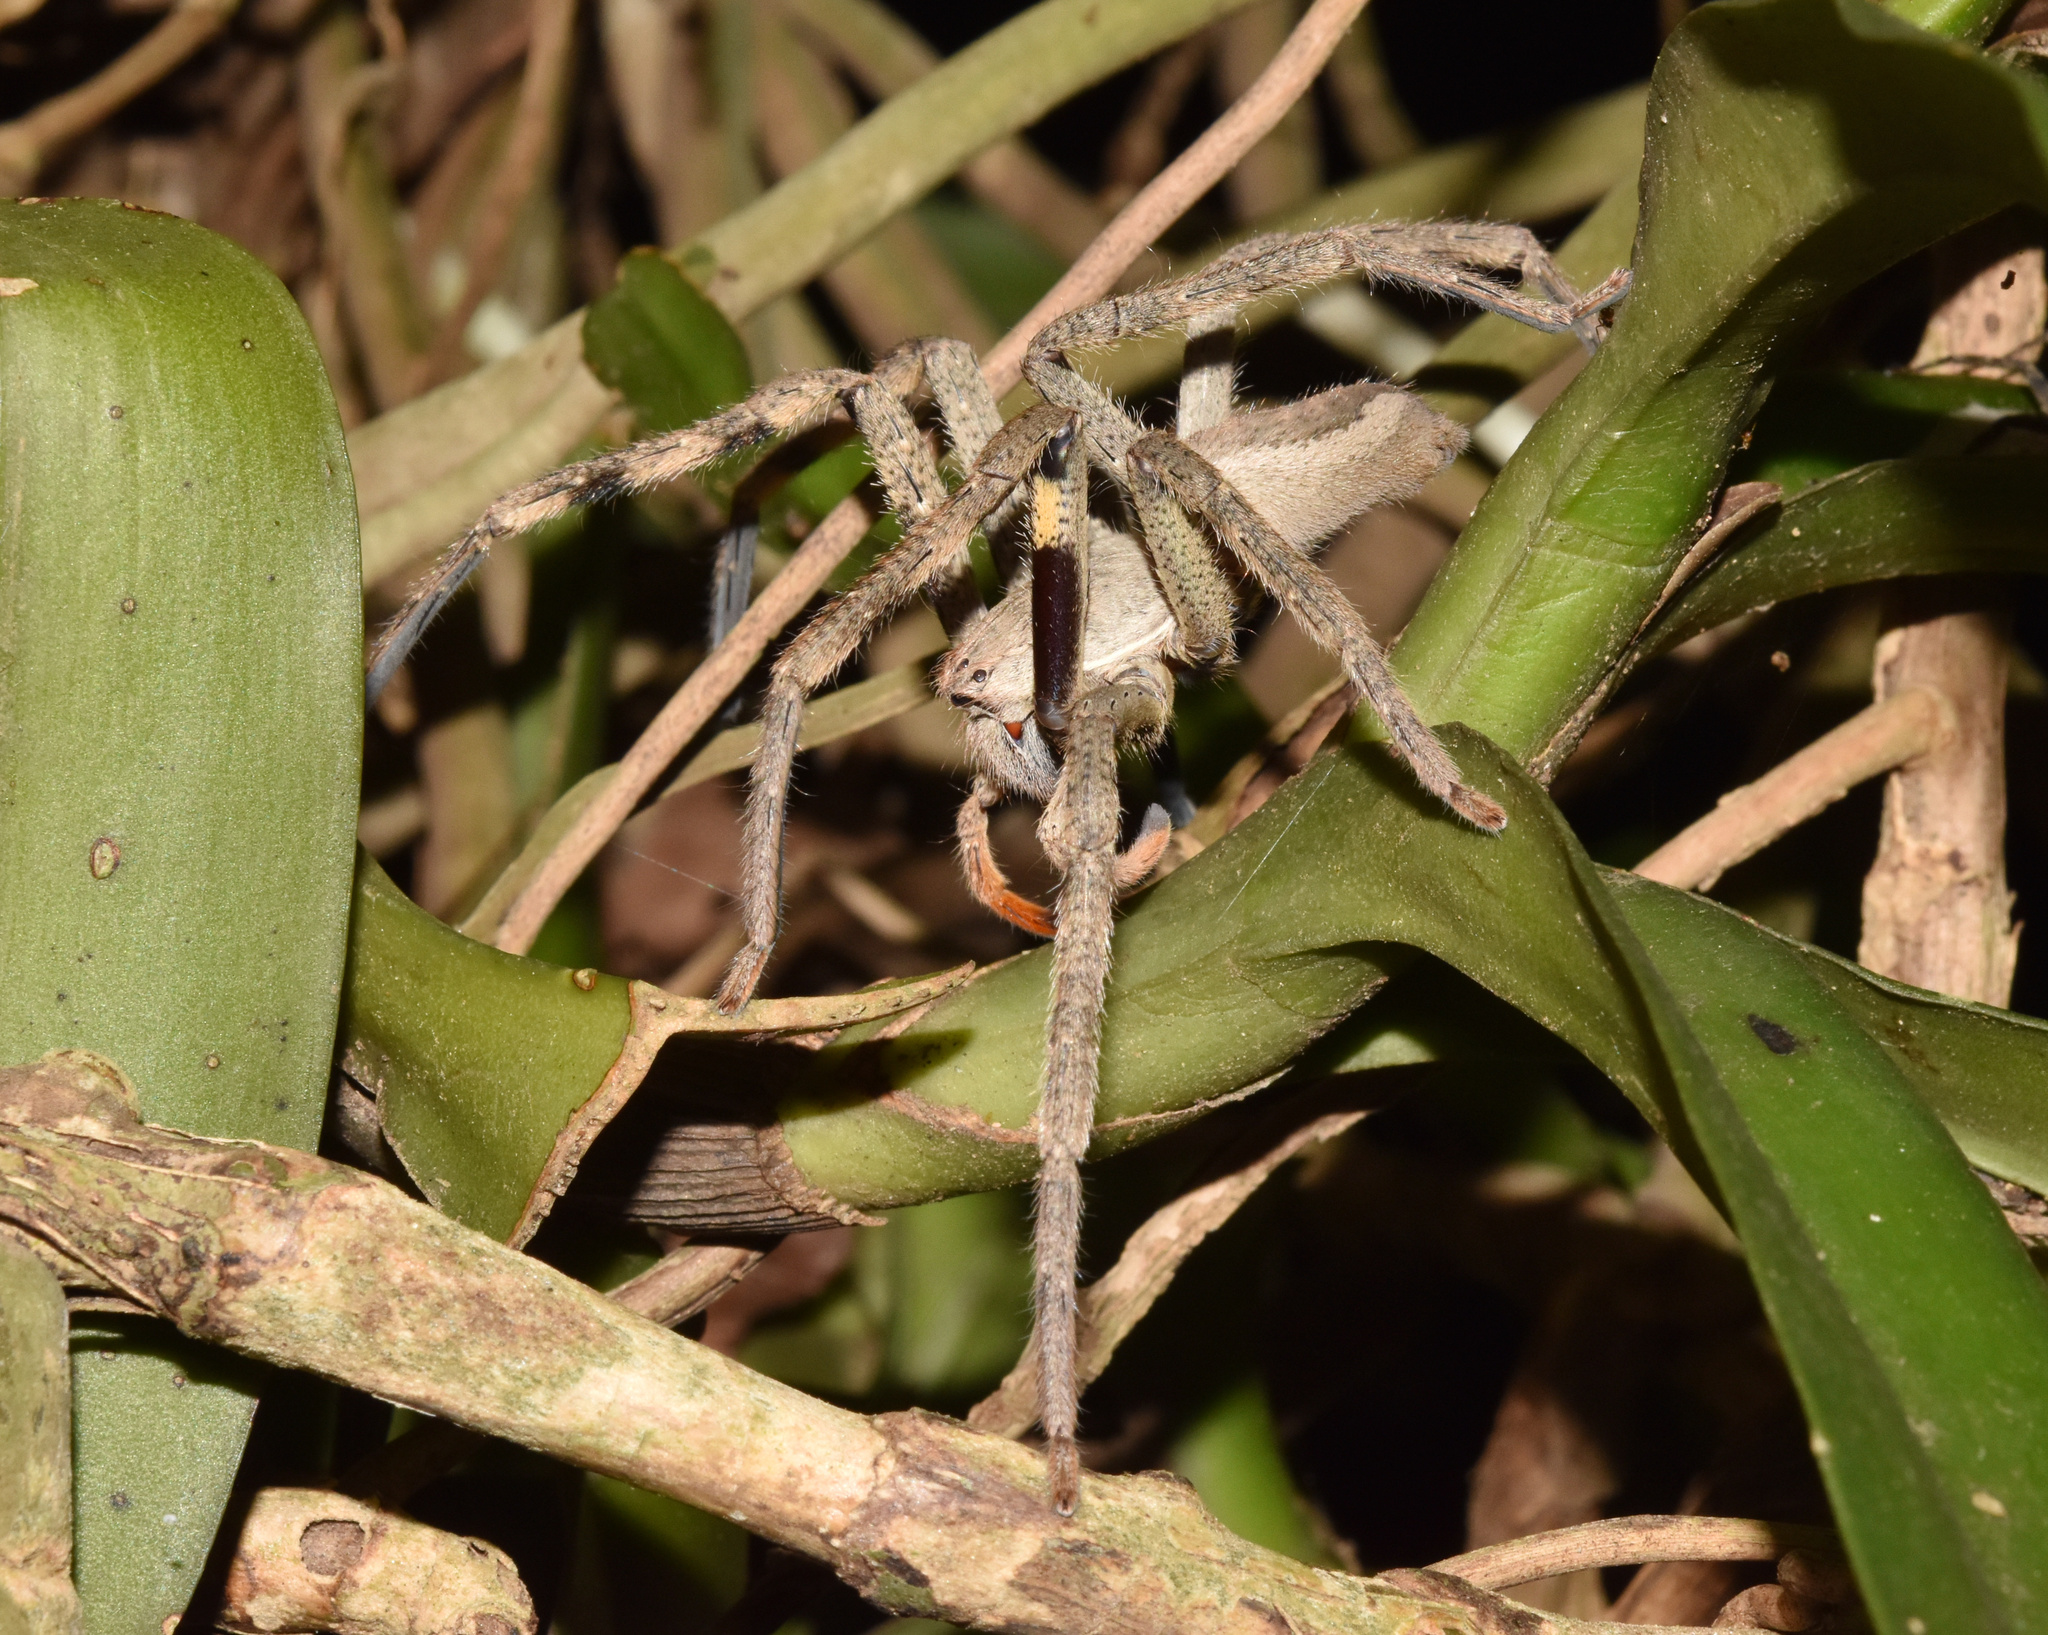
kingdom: Animalia
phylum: Arthropoda
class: Arachnida
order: Araneae
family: Sparassidae
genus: Palystes
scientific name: Palystes superciliosus
